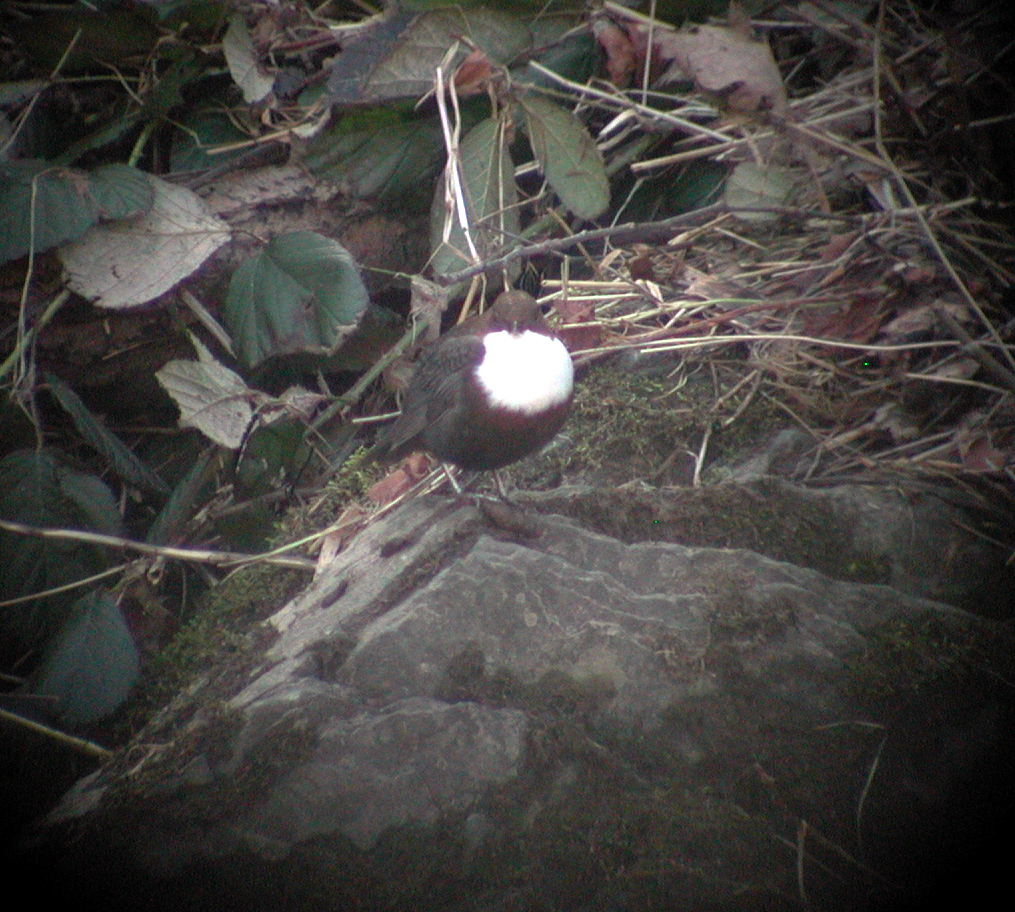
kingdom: Animalia
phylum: Chordata
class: Aves
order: Passeriformes
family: Cinclidae
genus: Cinclus
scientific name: Cinclus cinclus
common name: White-throated dipper
